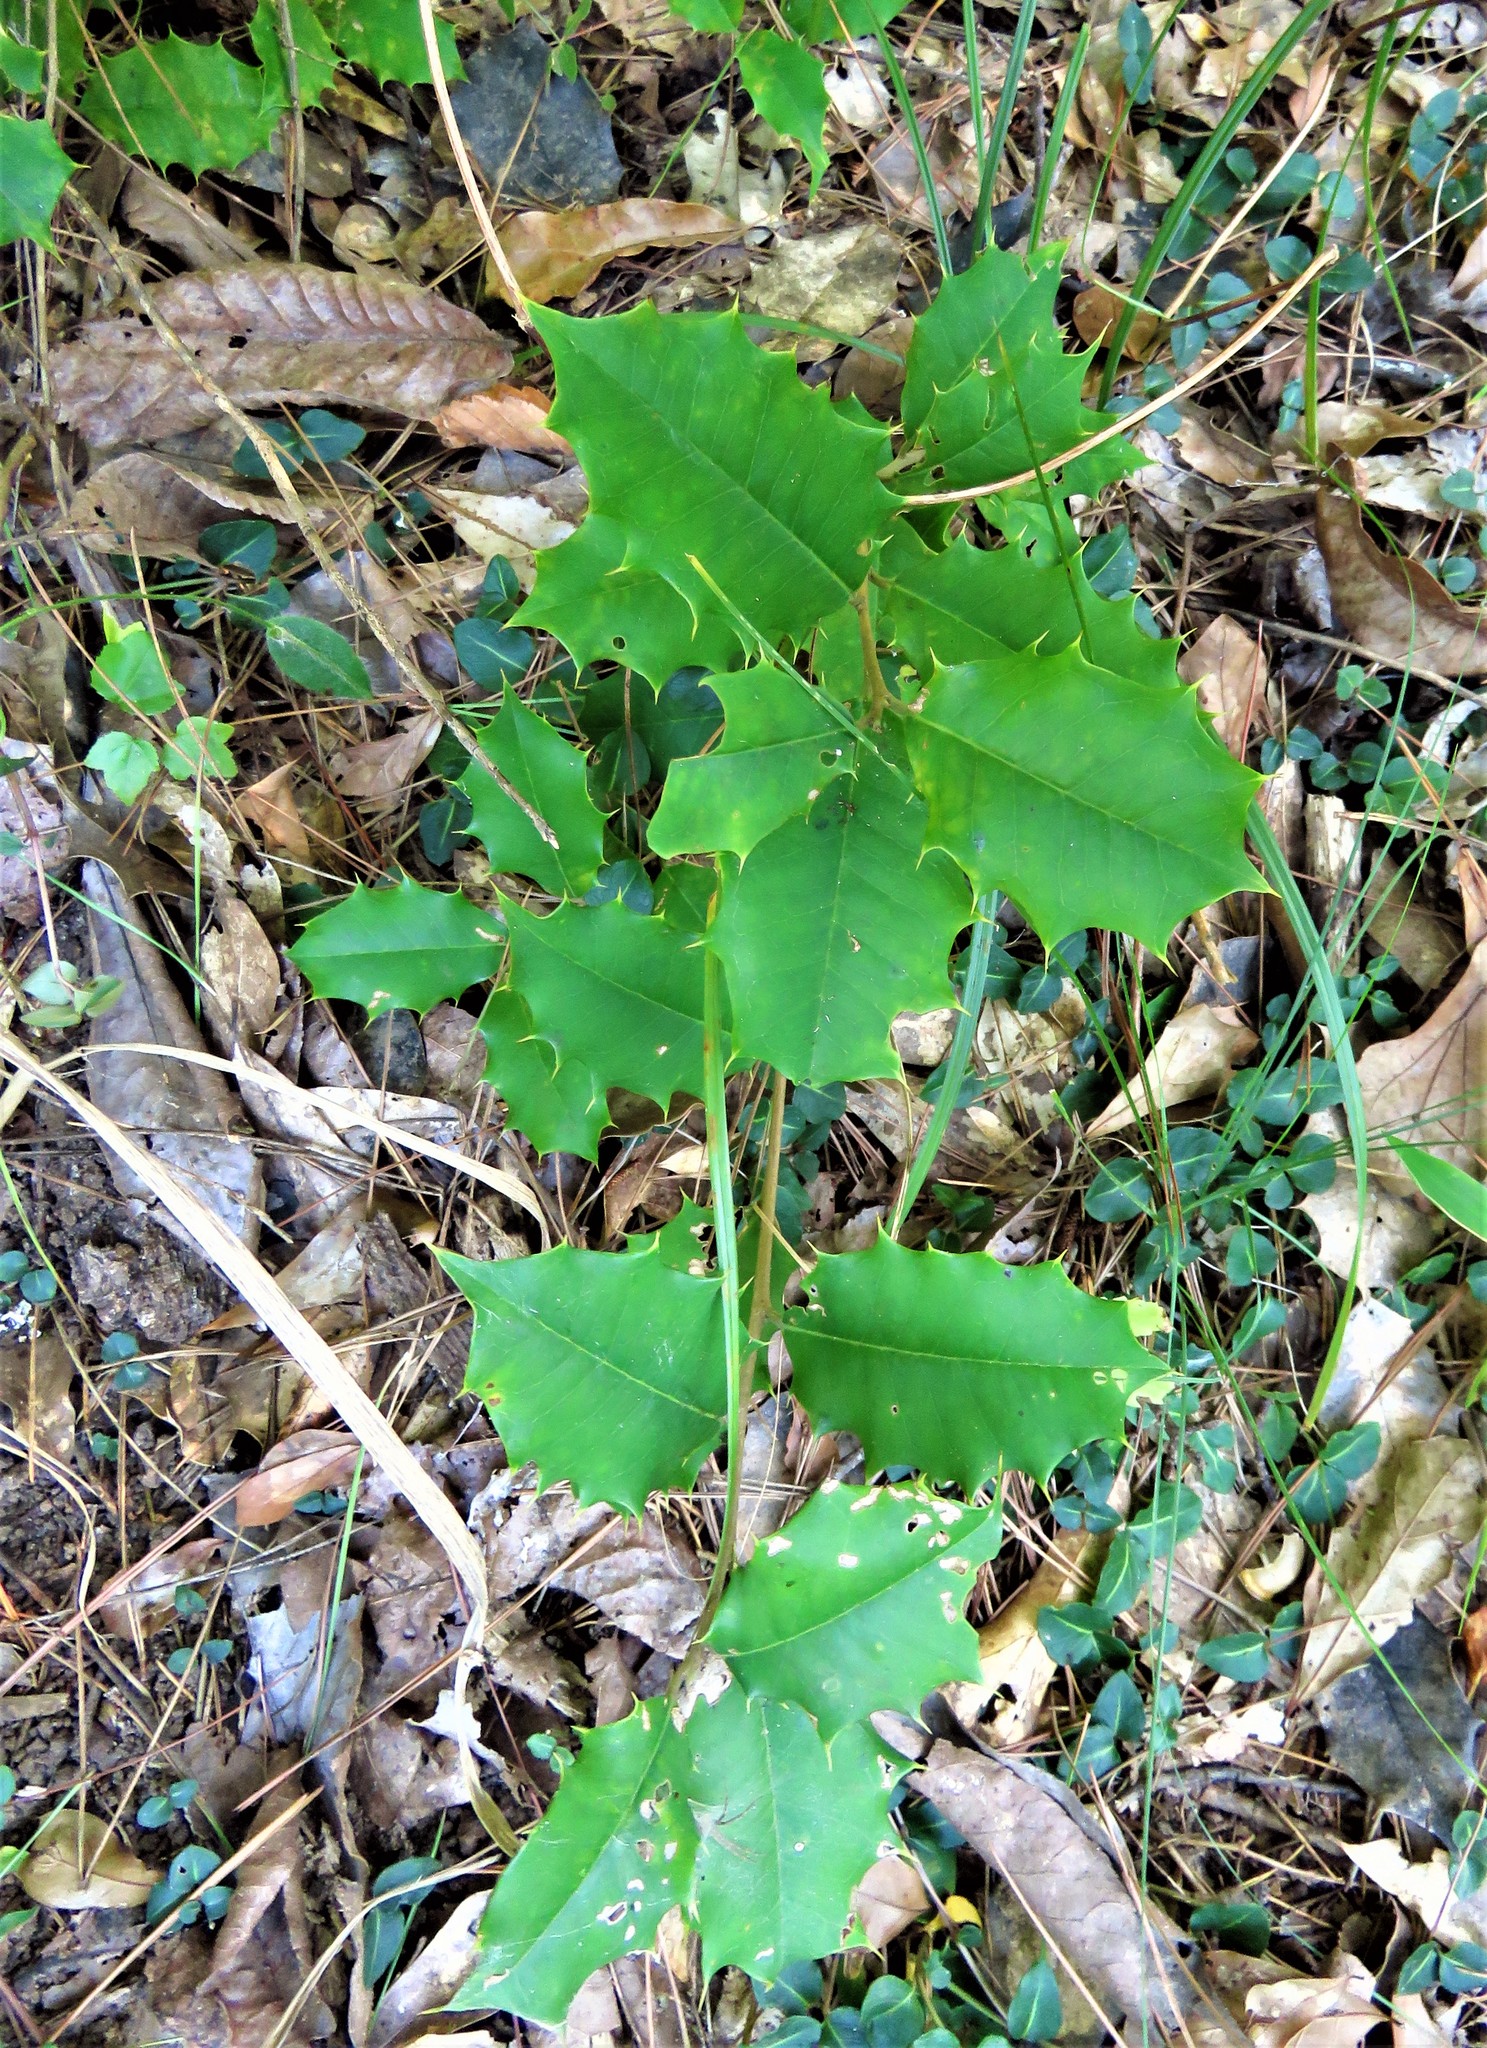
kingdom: Plantae
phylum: Tracheophyta
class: Magnoliopsida
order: Aquifoliales
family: Aquifoliaceae
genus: Ilex
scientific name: Ilex opaca
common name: American holly
